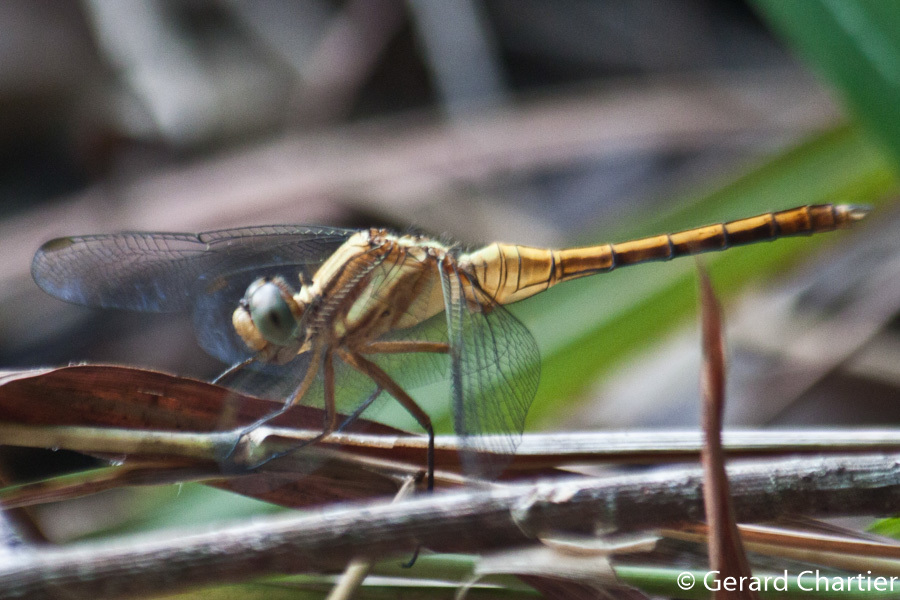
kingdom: Animalia
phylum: Arthropoda
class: Insecta
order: Odonata
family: Libellulidae
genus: Orthetrum
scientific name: Orthetrum glaucum
